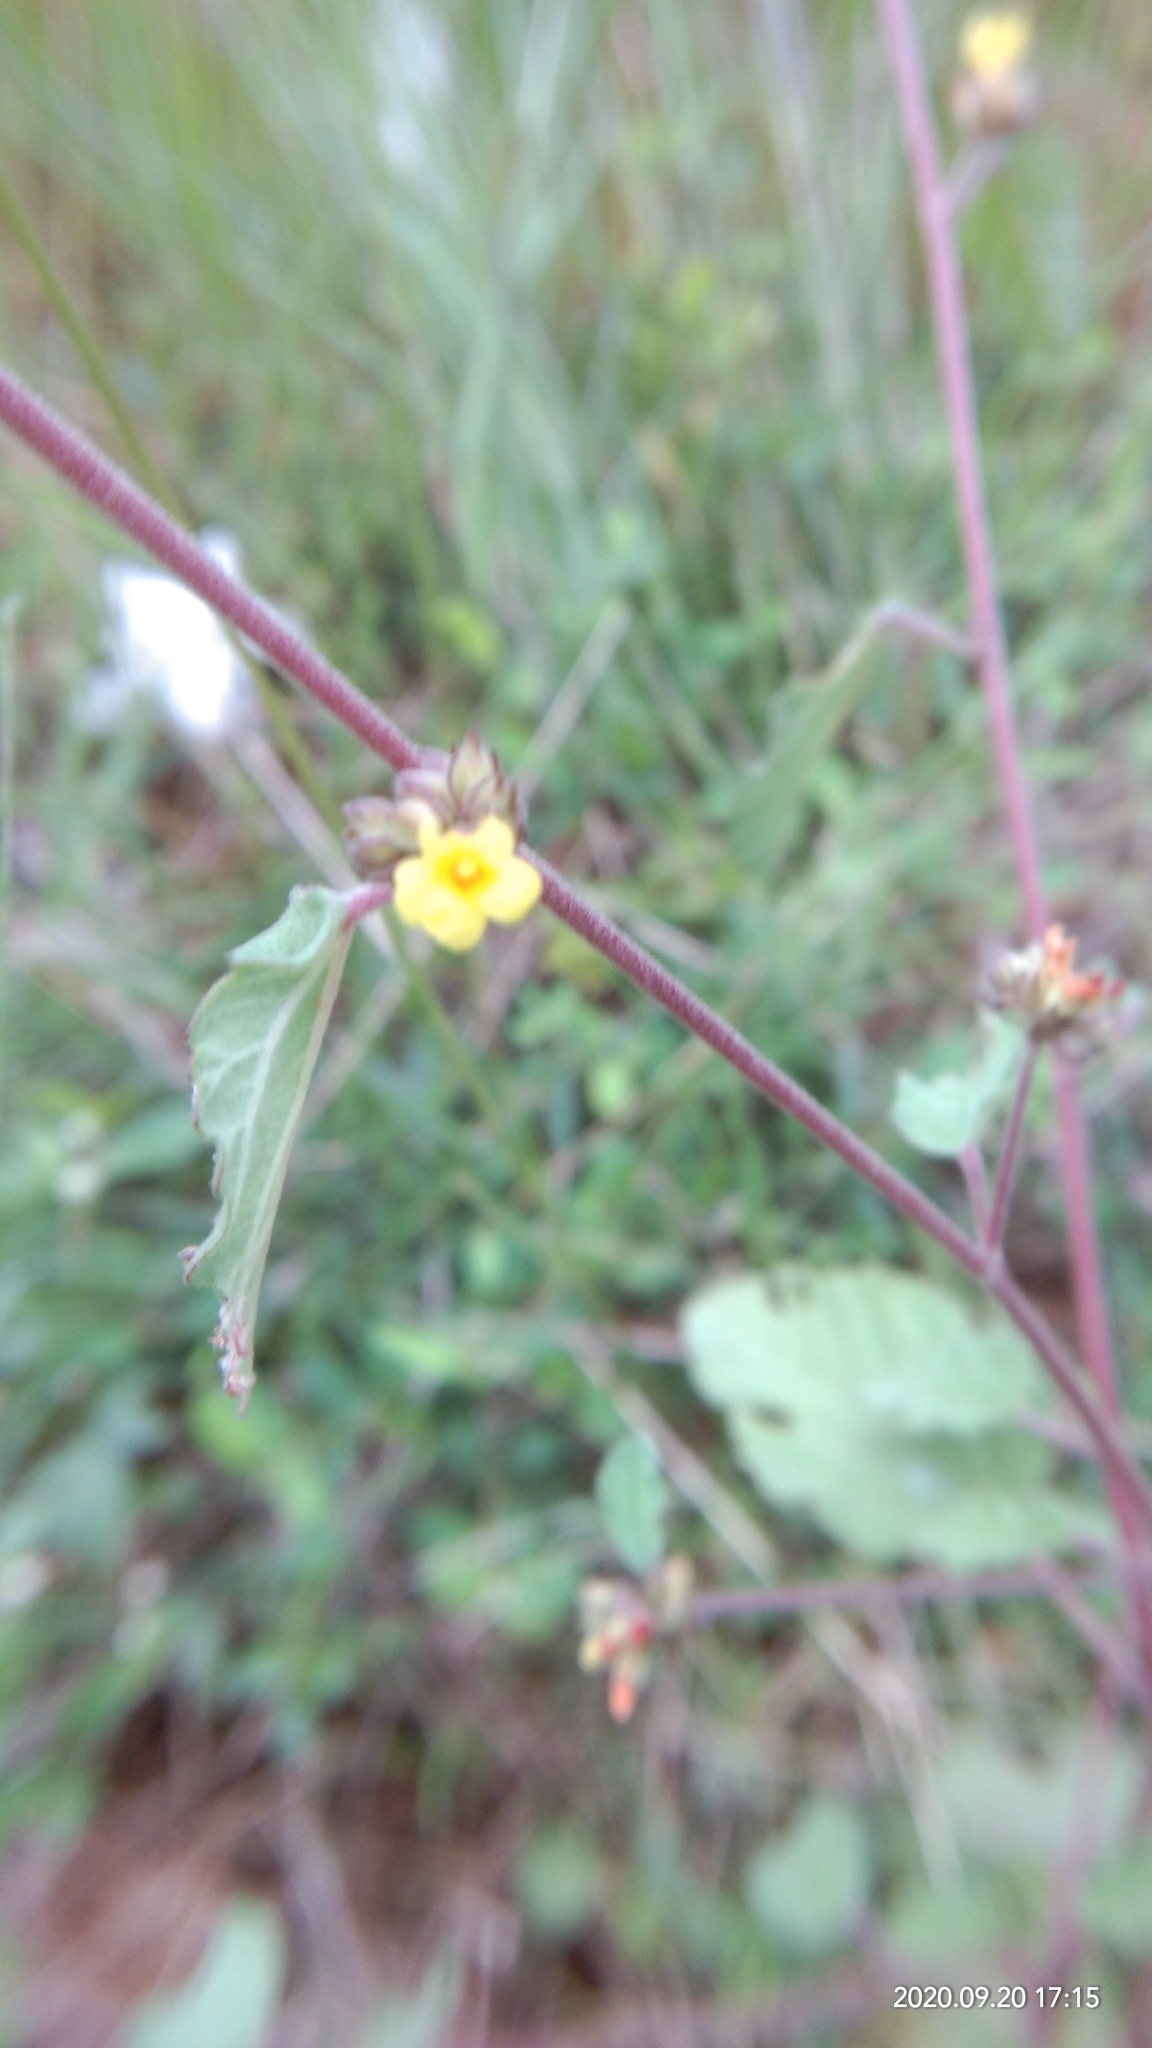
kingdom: Plantae
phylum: Tracheophyta
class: Magnoliopsida
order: Malvales
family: Malvaceae
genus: Waltheria
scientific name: Waltheria indica
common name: Leather-coat
